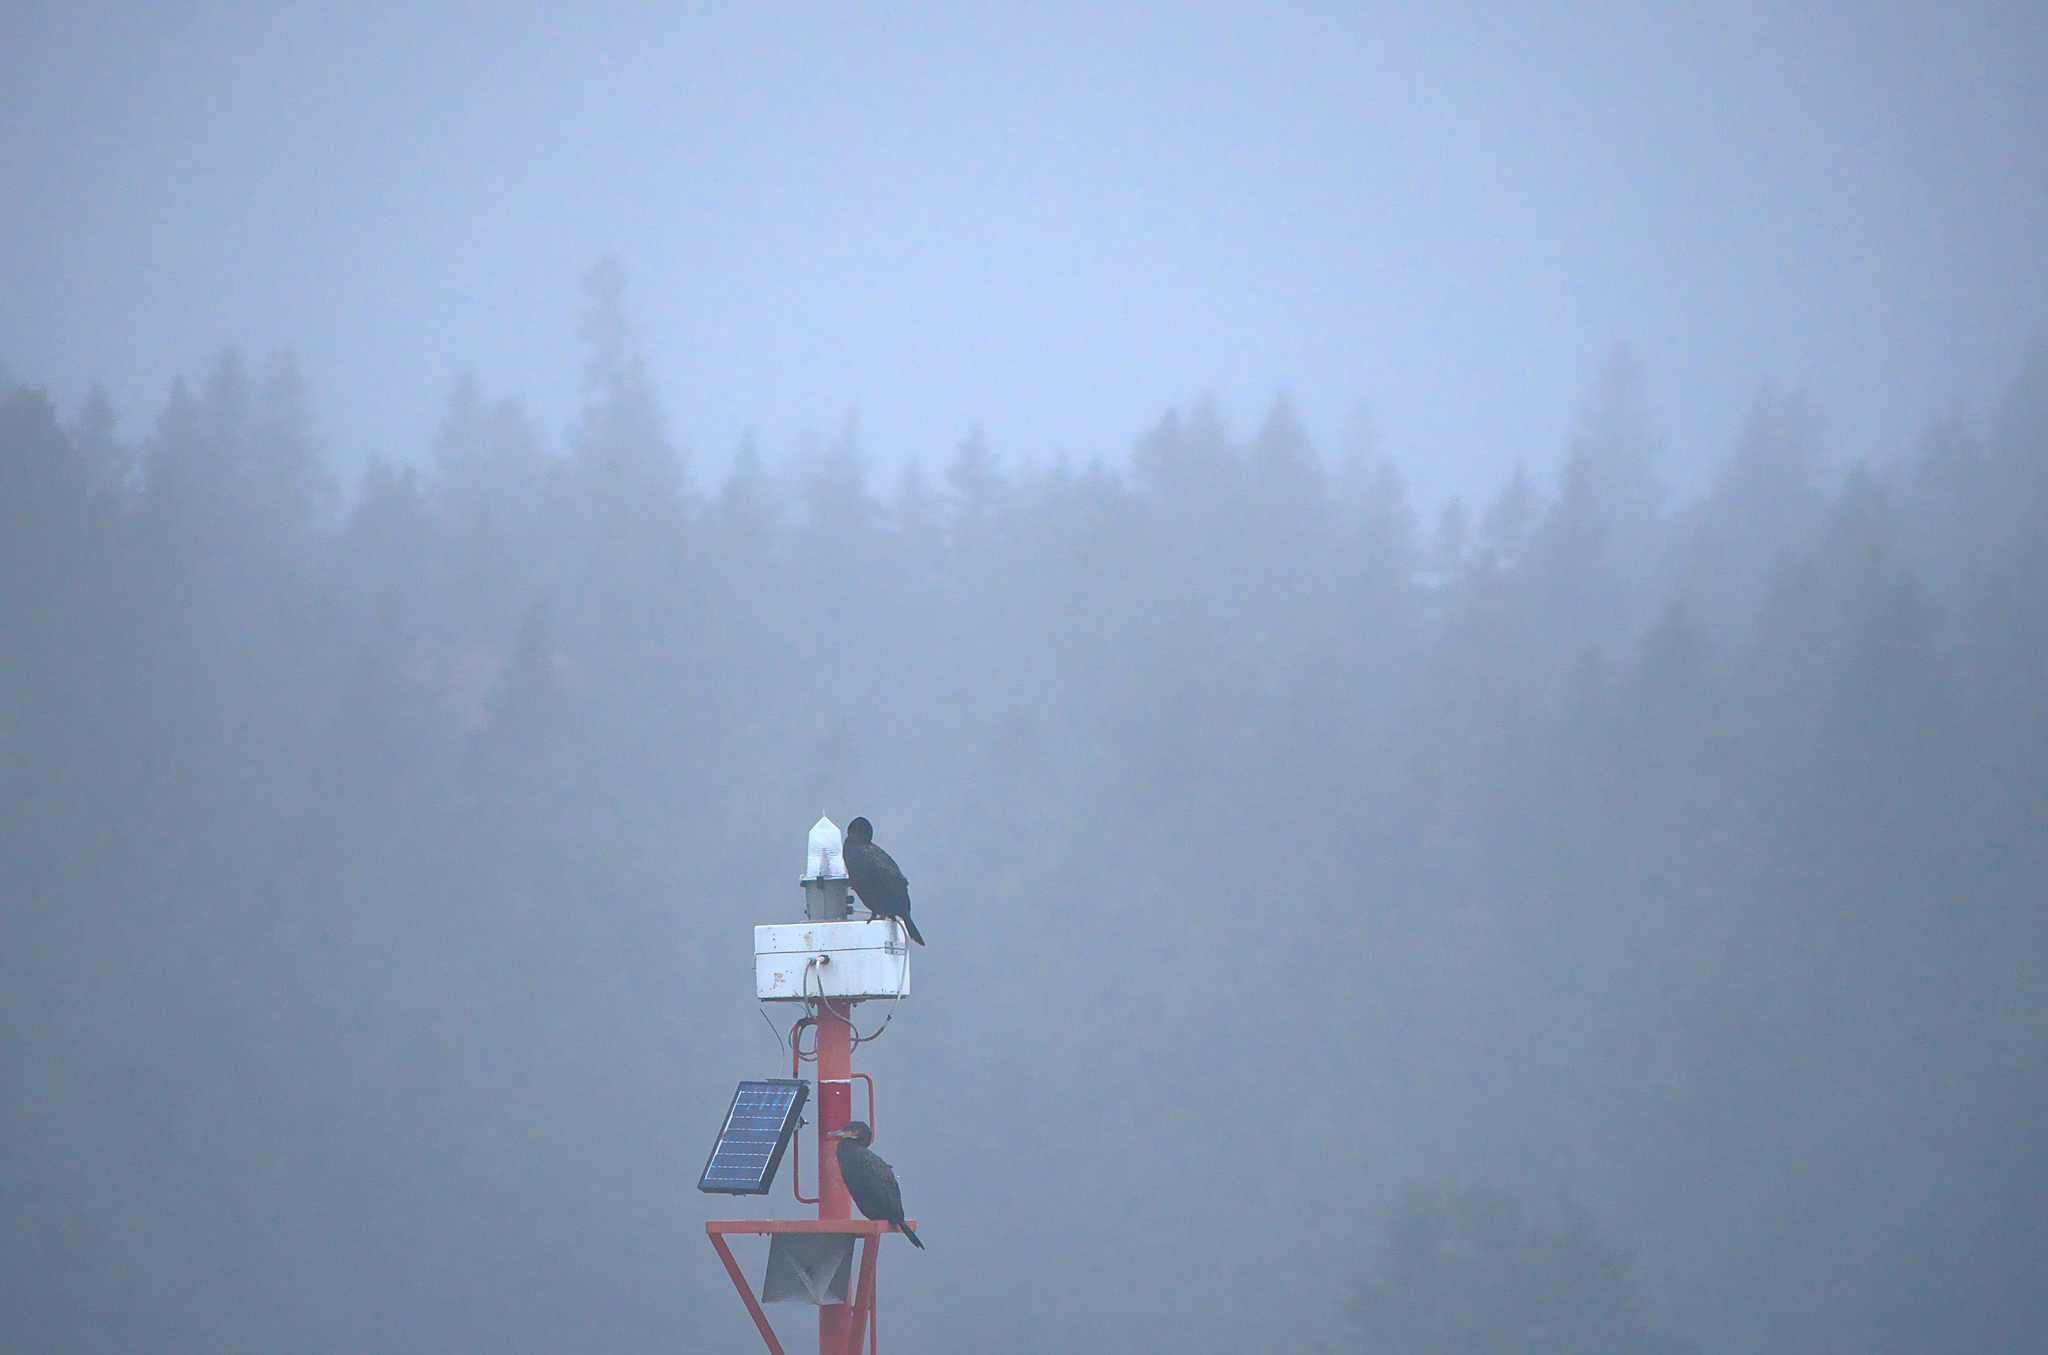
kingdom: Animalia
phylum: Chordata
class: Aves
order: Suliformes
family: Phalacrocoracidae
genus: Phalacrocorax
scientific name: Phalacrocorax auritus
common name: Double-crested cormorant
